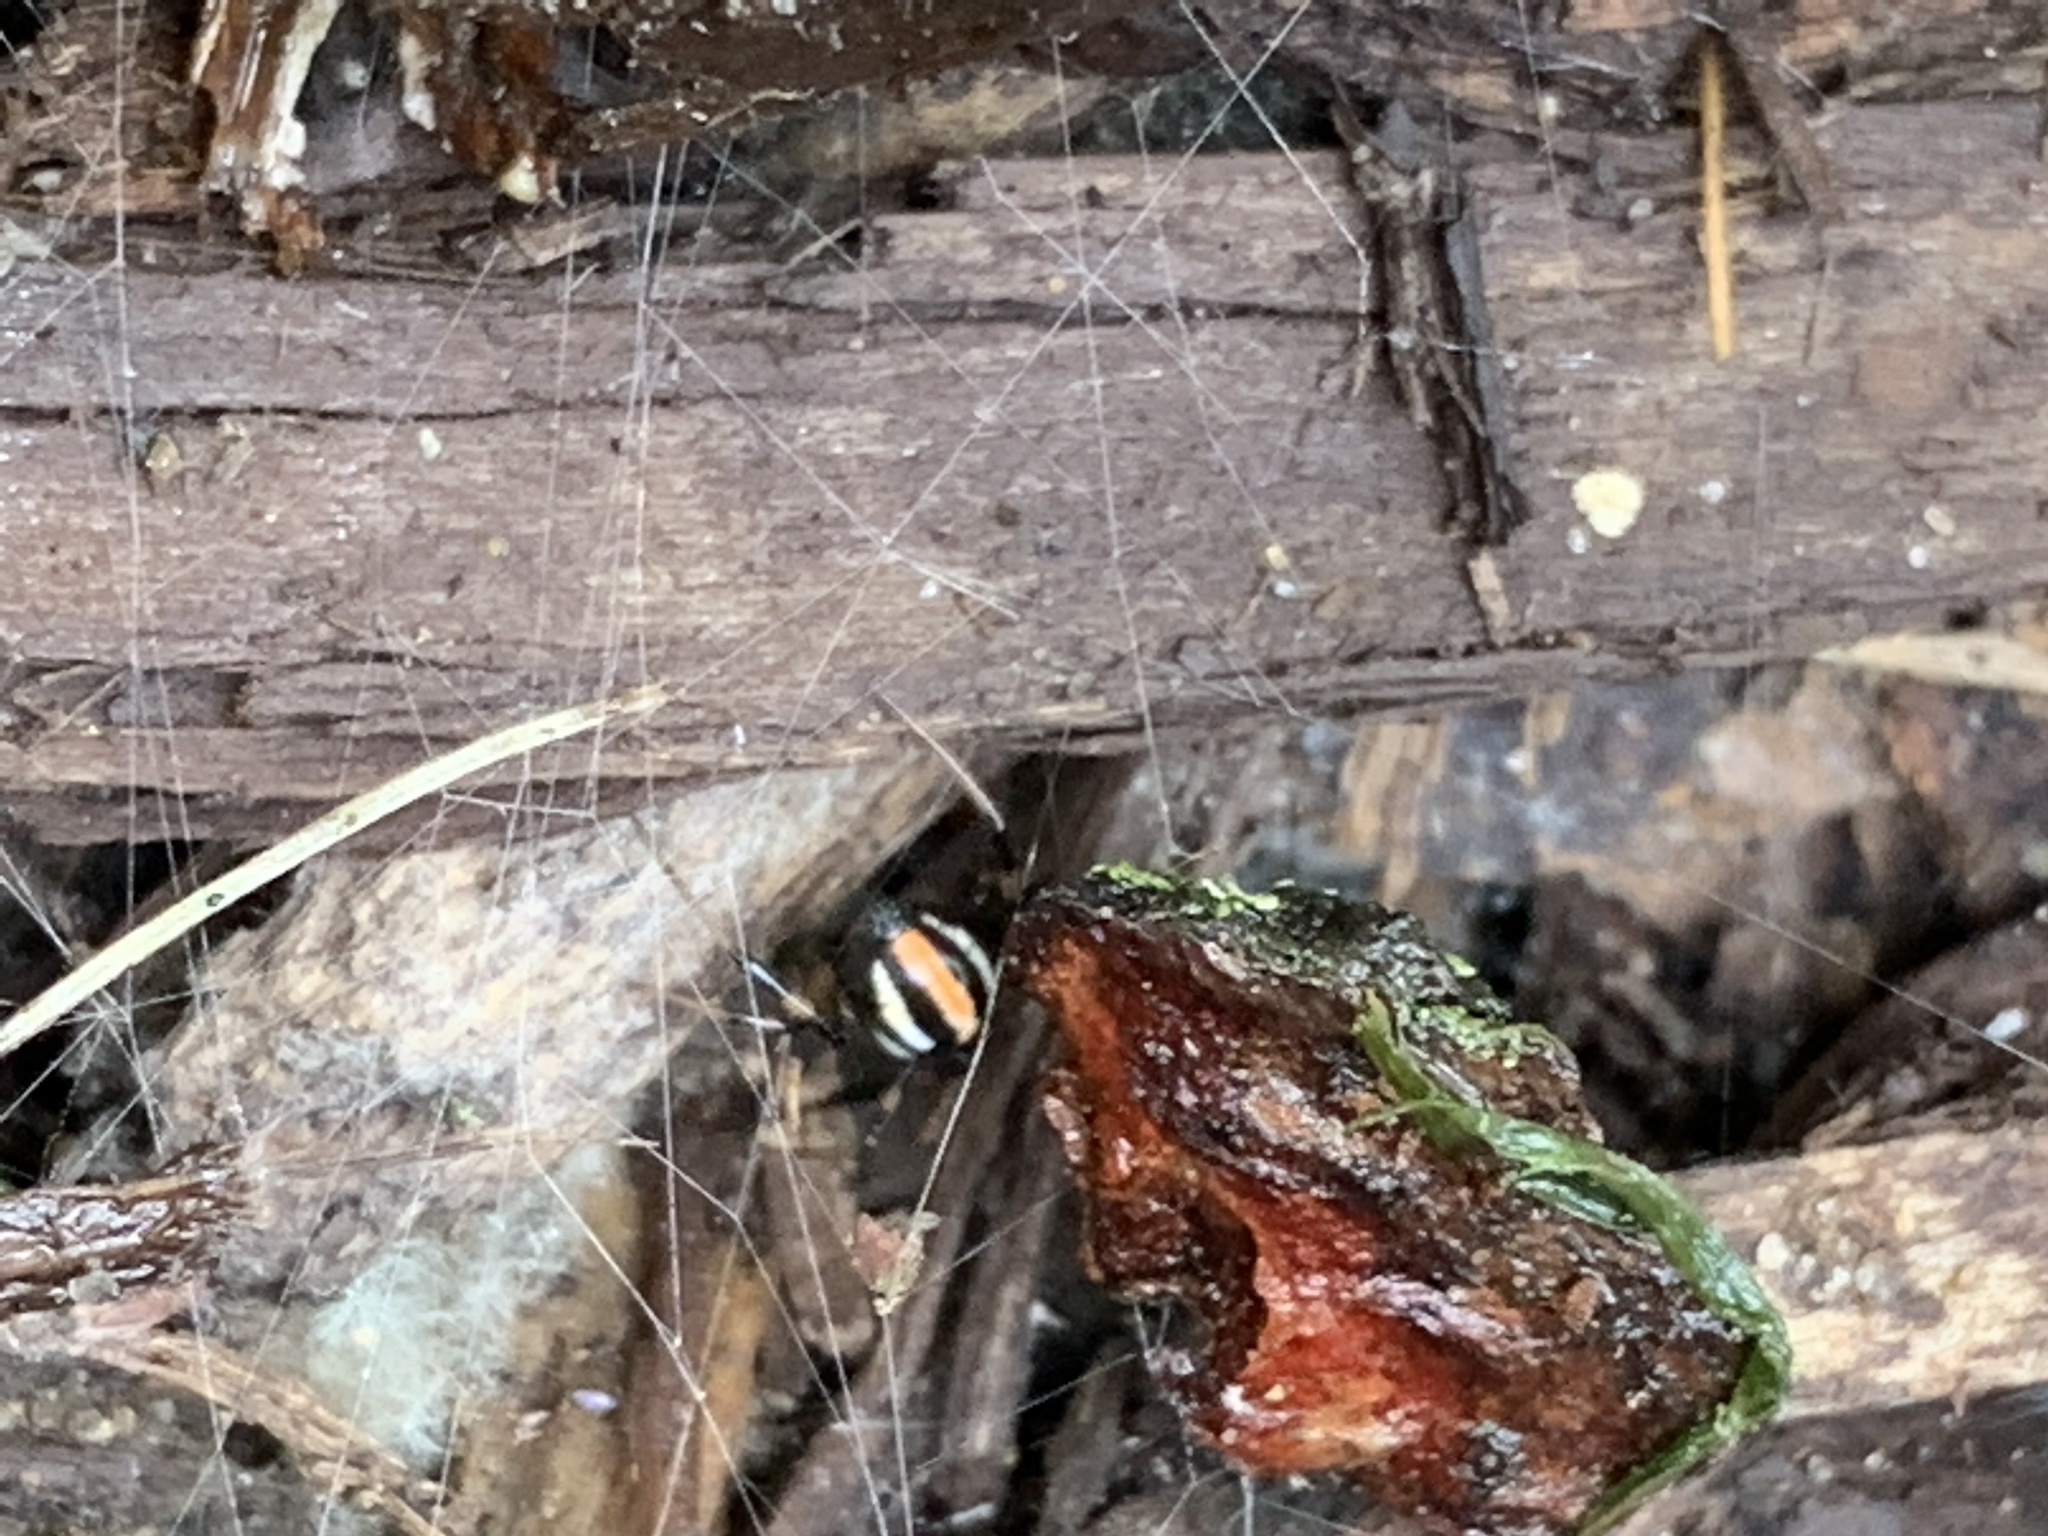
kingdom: Animalia
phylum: Arthropoda
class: Arachnida
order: Araneae
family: Theridiidae
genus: Latrodectus
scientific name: Latrodectus mactans
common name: Cobweb spiders
